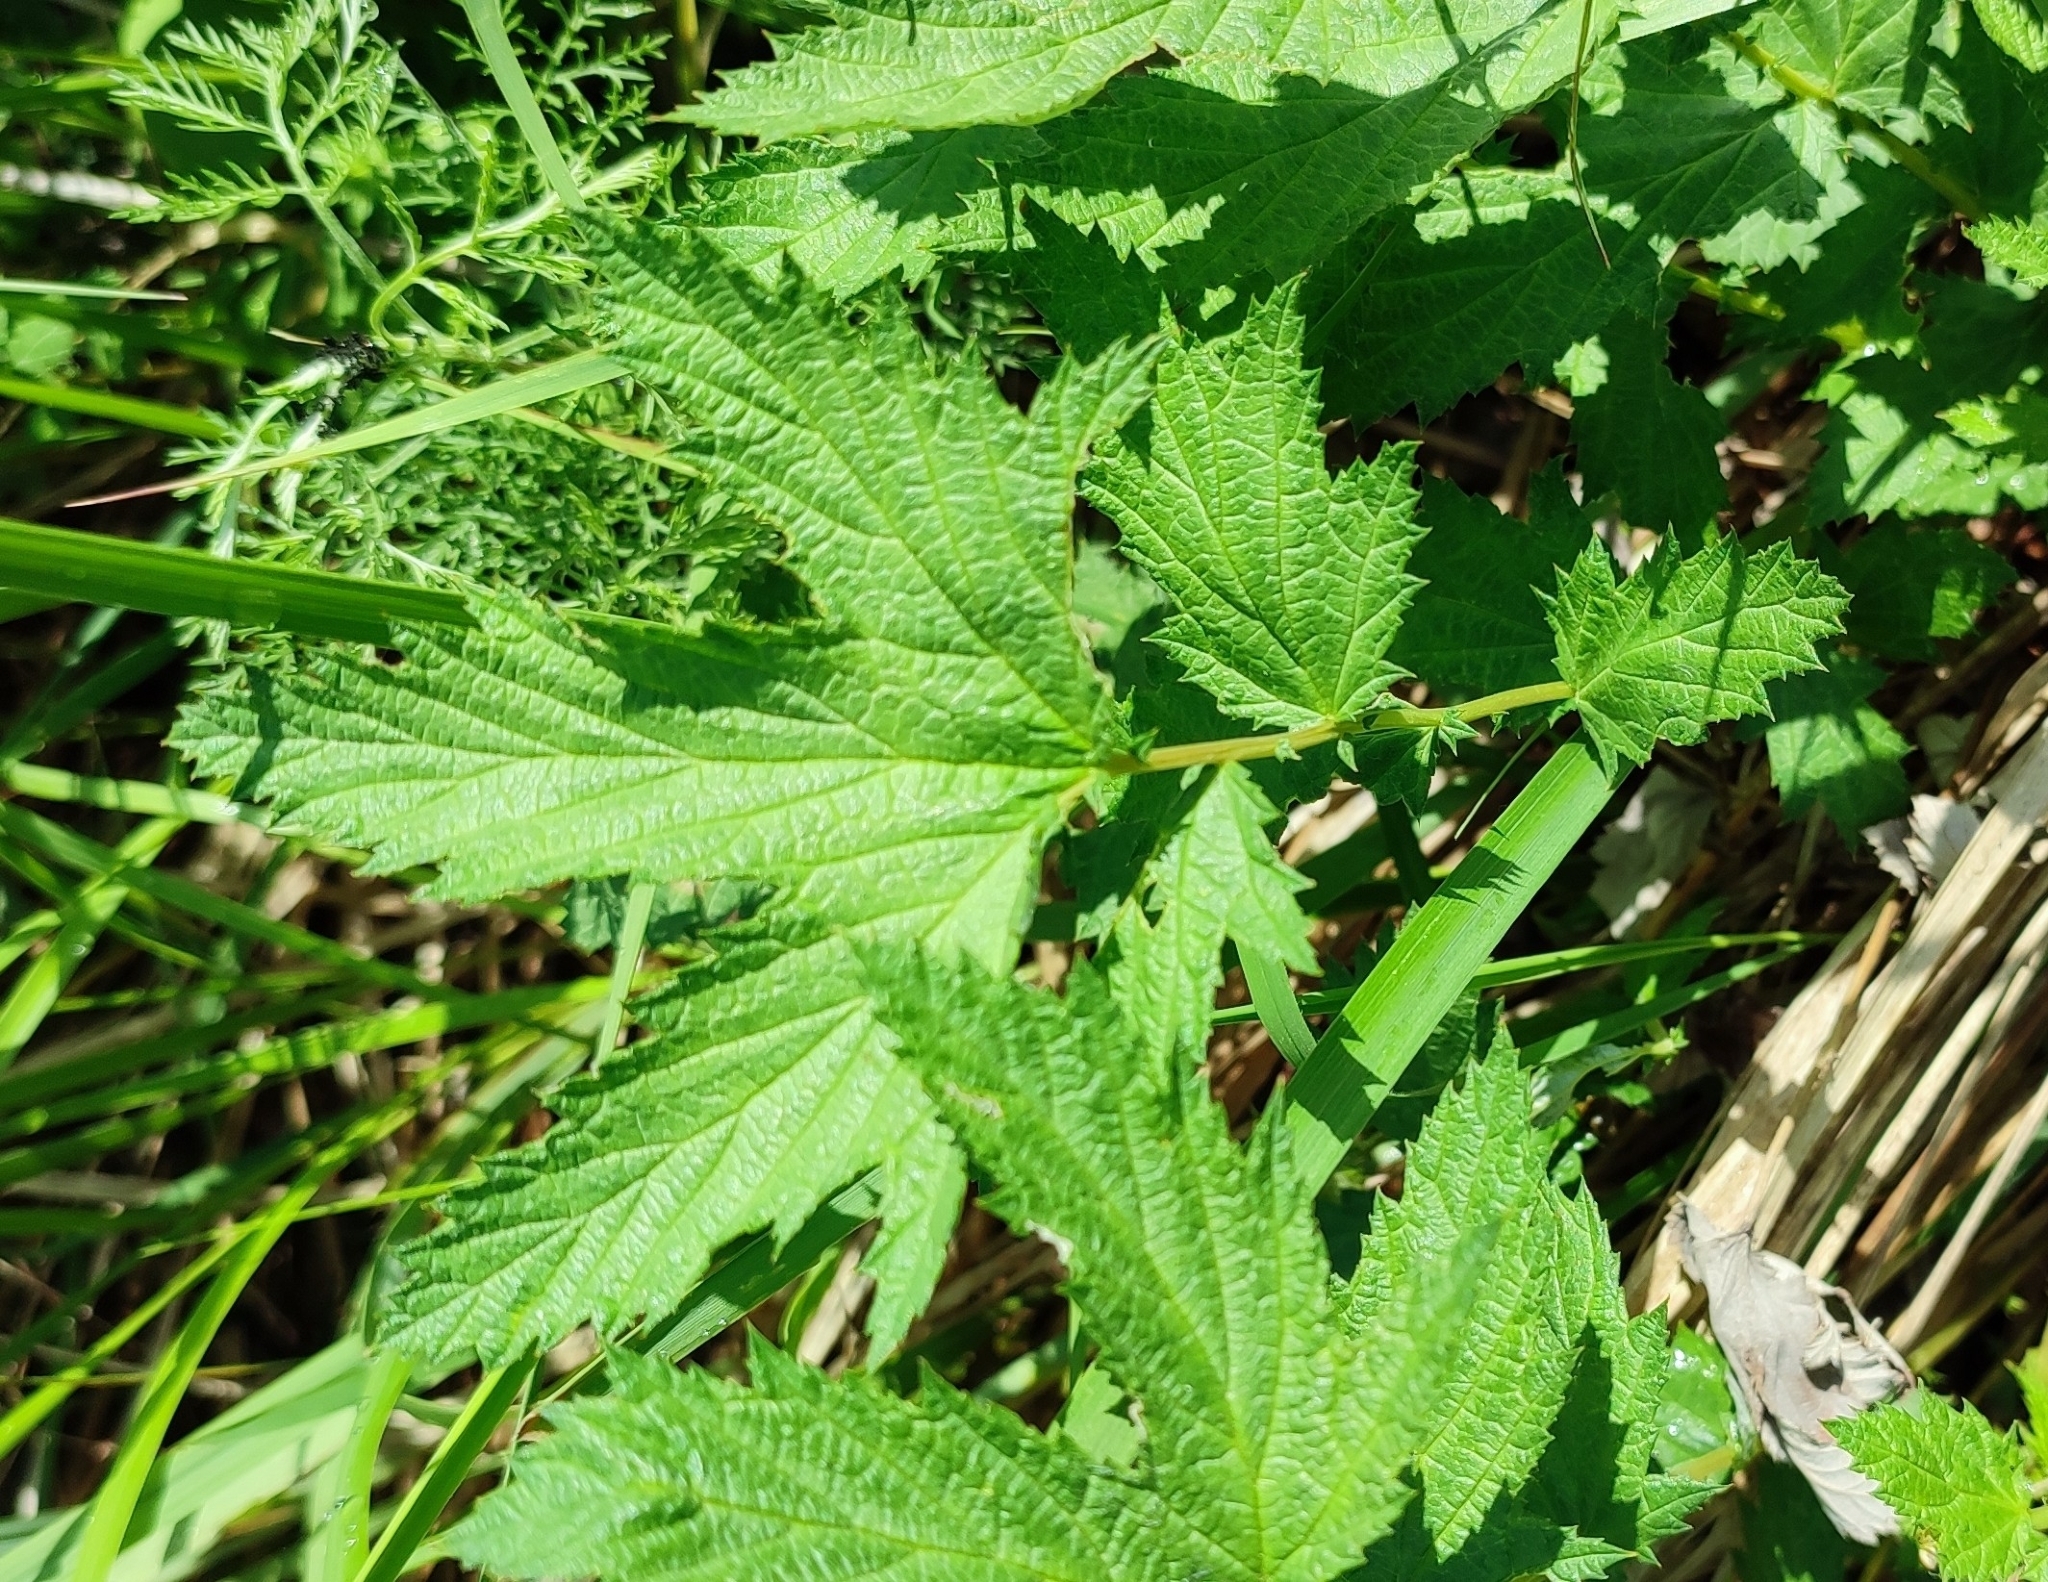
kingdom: Plantae
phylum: Tracheophyta
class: Magnoliopsida
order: Rosales
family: Rosaceae
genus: Filipendula
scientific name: Filipendula ulmaria
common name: Meadowsweet
